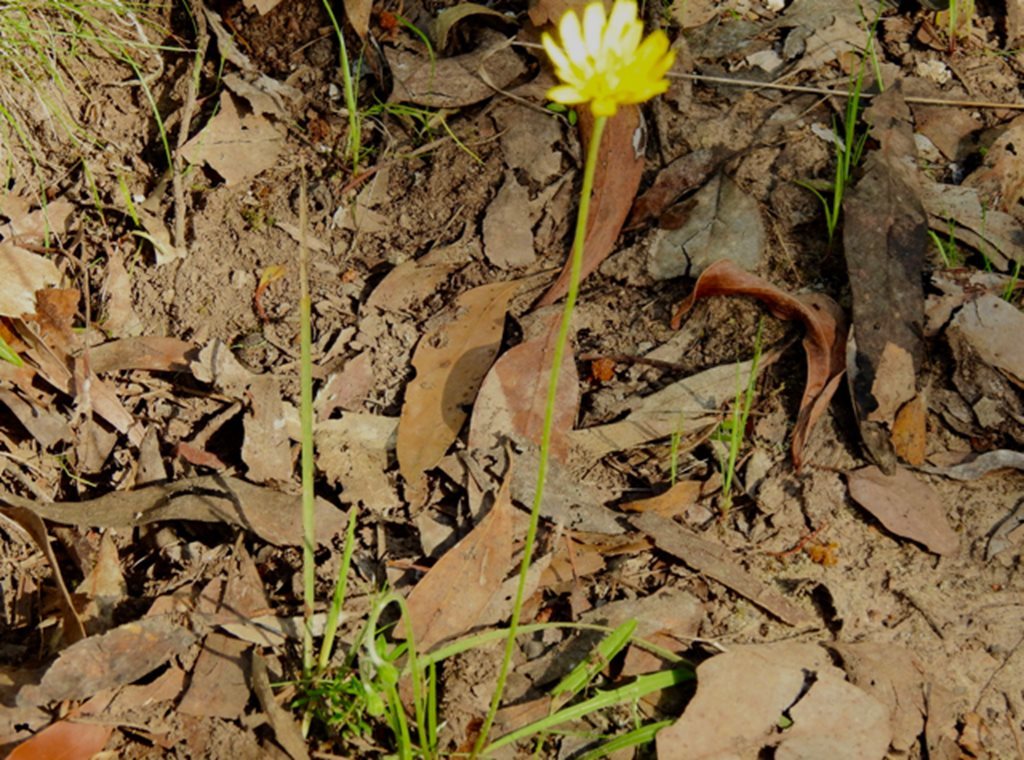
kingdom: Plantae
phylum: Tracheophyta
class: Magnoliopsida
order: Asterales
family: Asteraceae
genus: Microseris
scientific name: Microseris lanceolata
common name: Yam daisy
